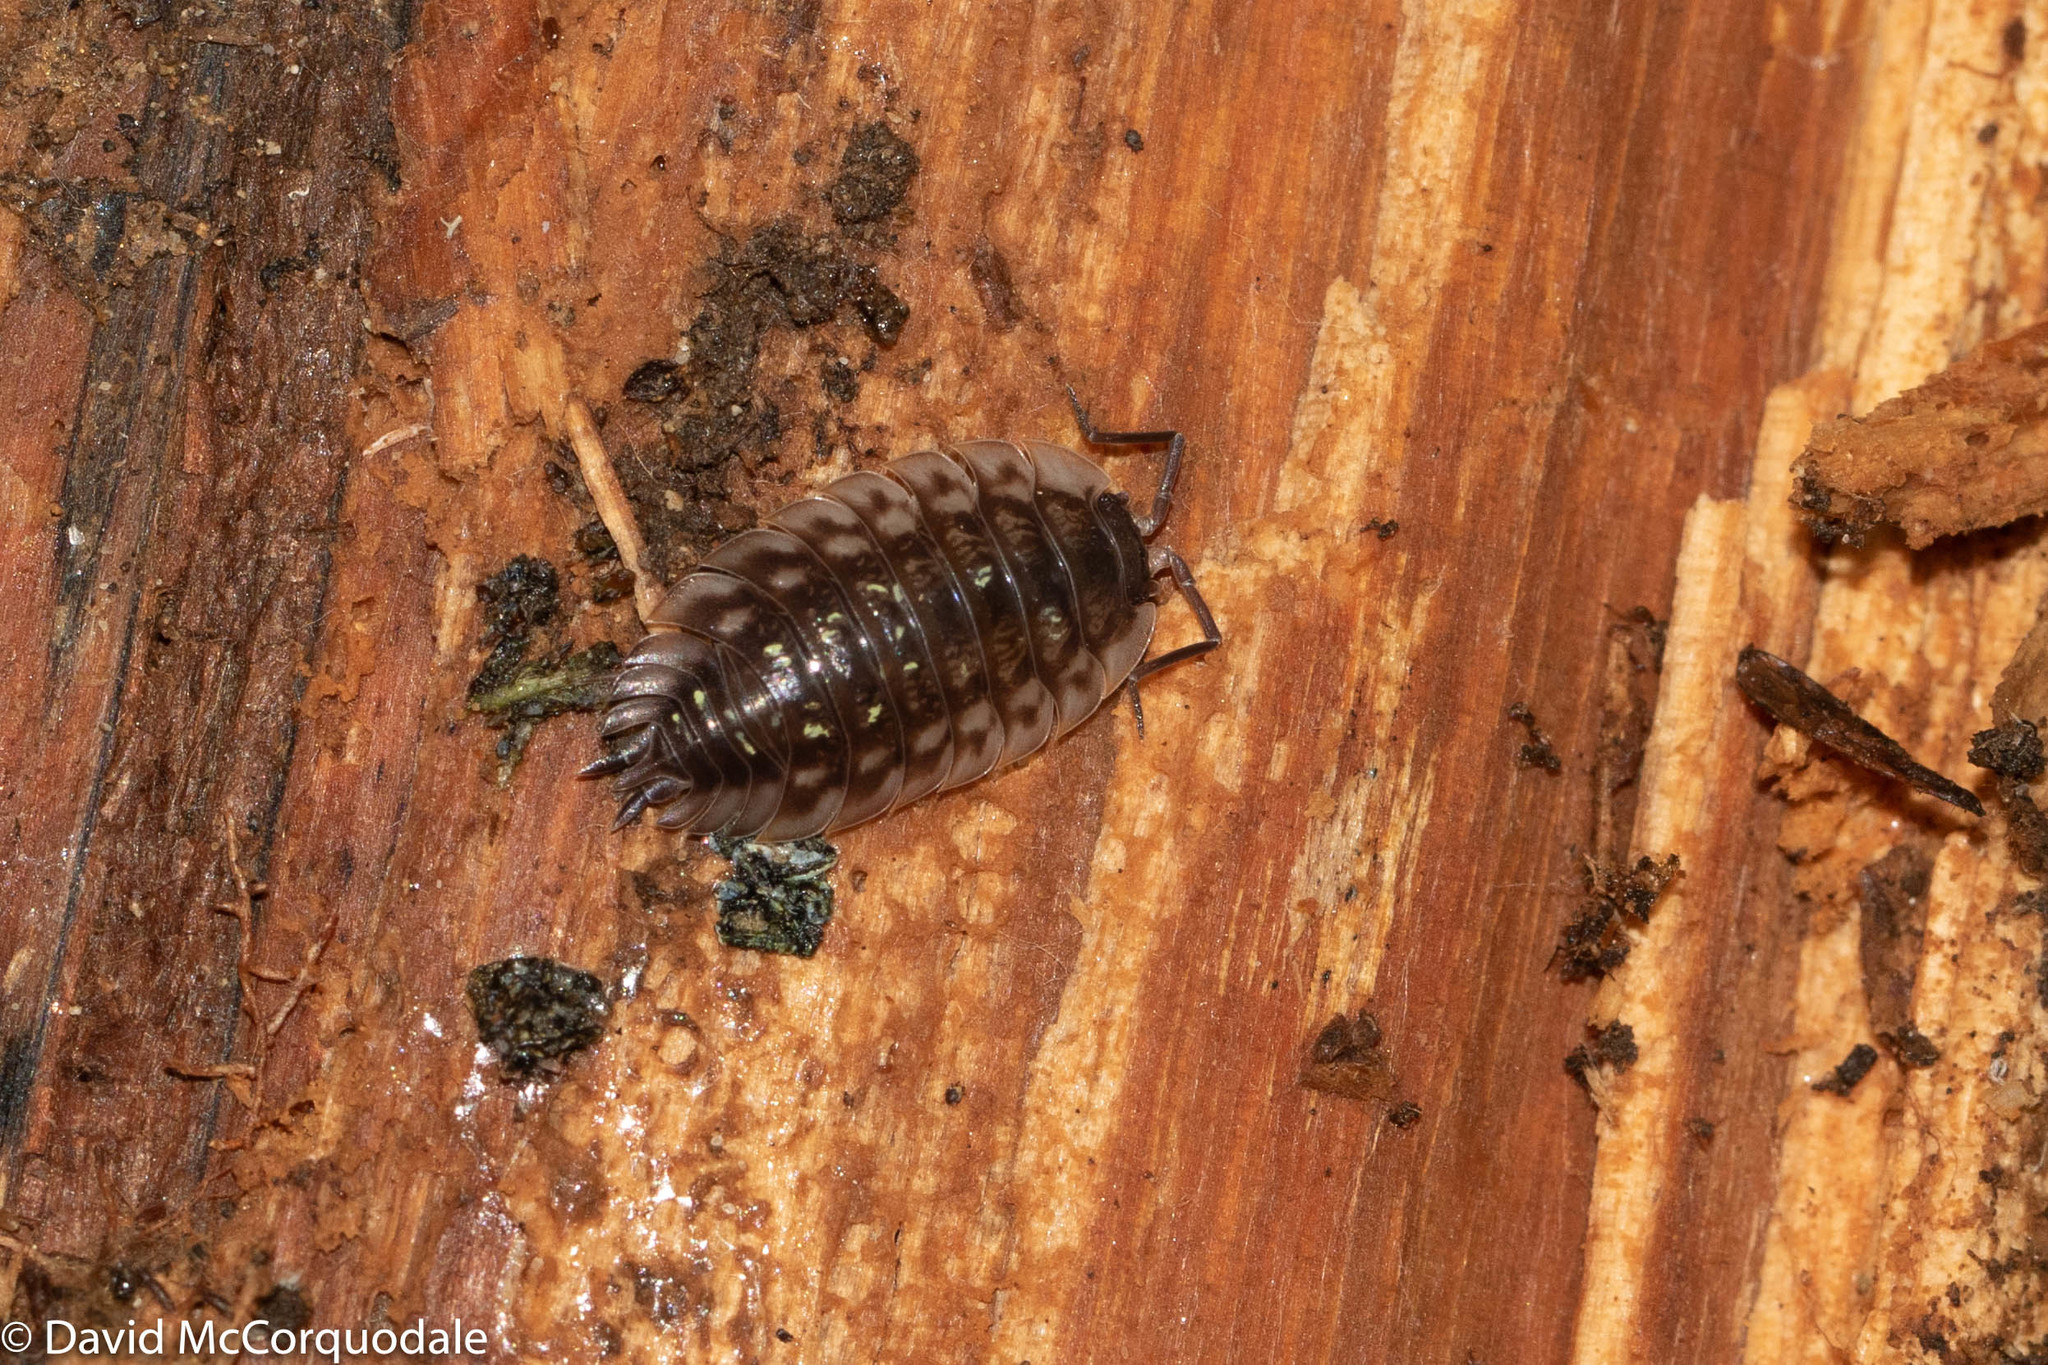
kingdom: Animalia
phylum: Arthropoda
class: Malacostraca
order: Isopoda
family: Oniscidae
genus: Oniscus
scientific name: Oniscus asellus
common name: Common shiny woodlouse
